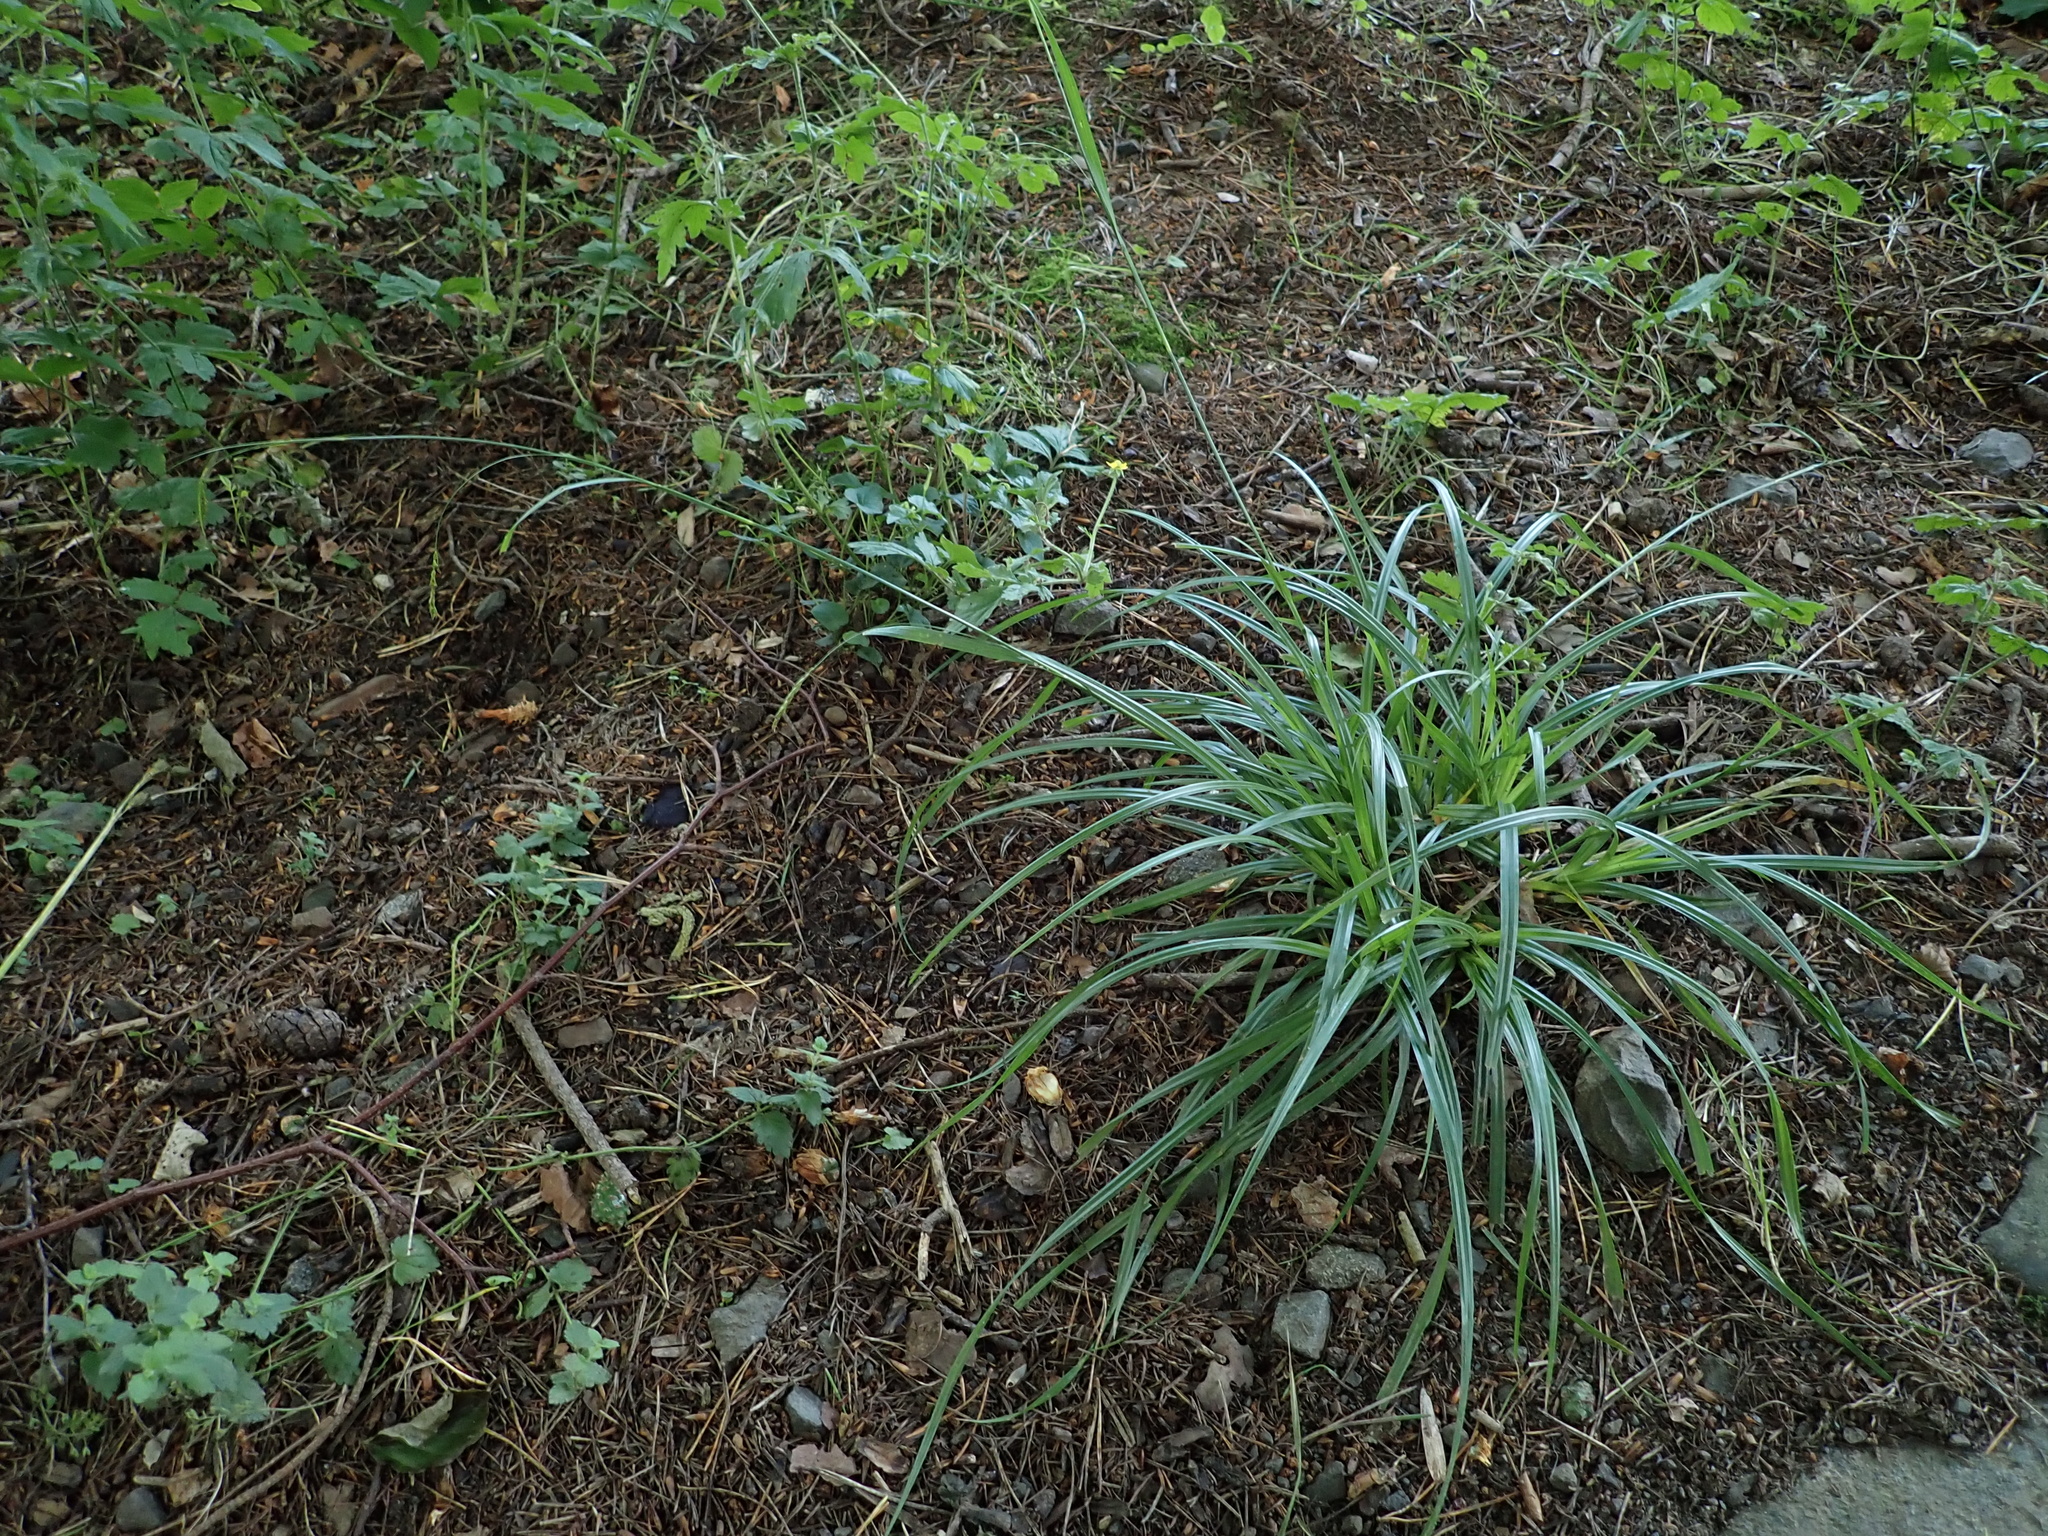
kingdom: Plantae
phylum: Tracheophyta
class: Liliopsida
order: Poales
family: Cyperaceae
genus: Carex
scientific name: Carex sylvatica
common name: Wood-sedge
